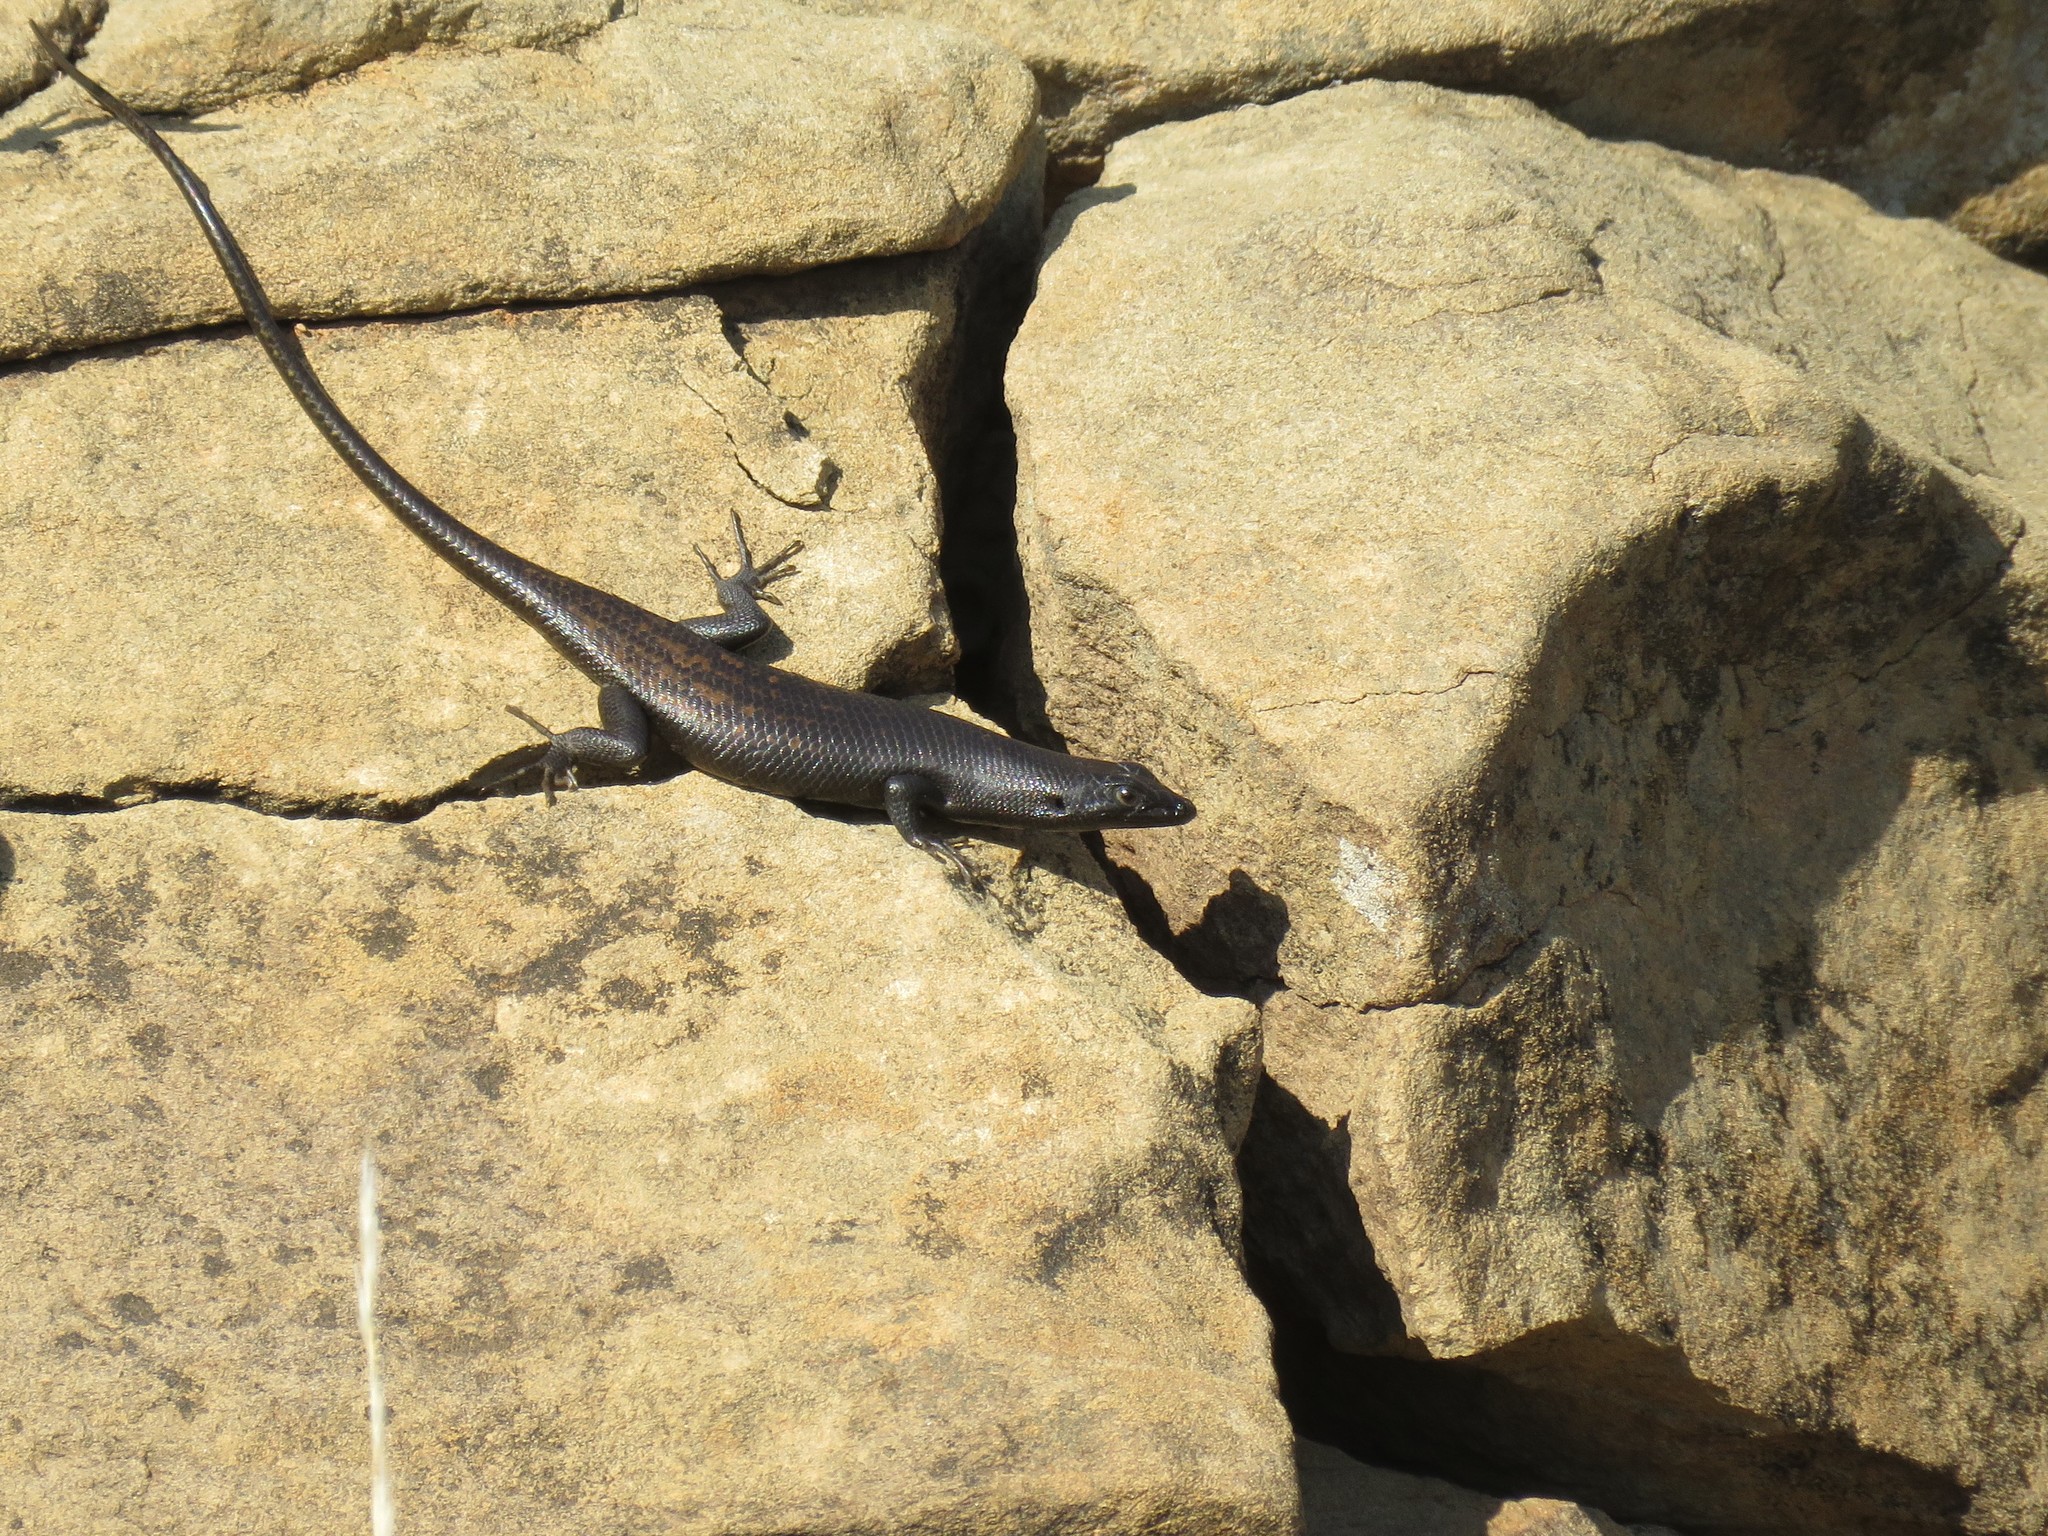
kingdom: Animalia
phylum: Chordata
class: Squamata
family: Scincidae
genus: Trachylepis
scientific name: Trachylepis sulcata
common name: Western rock skink
